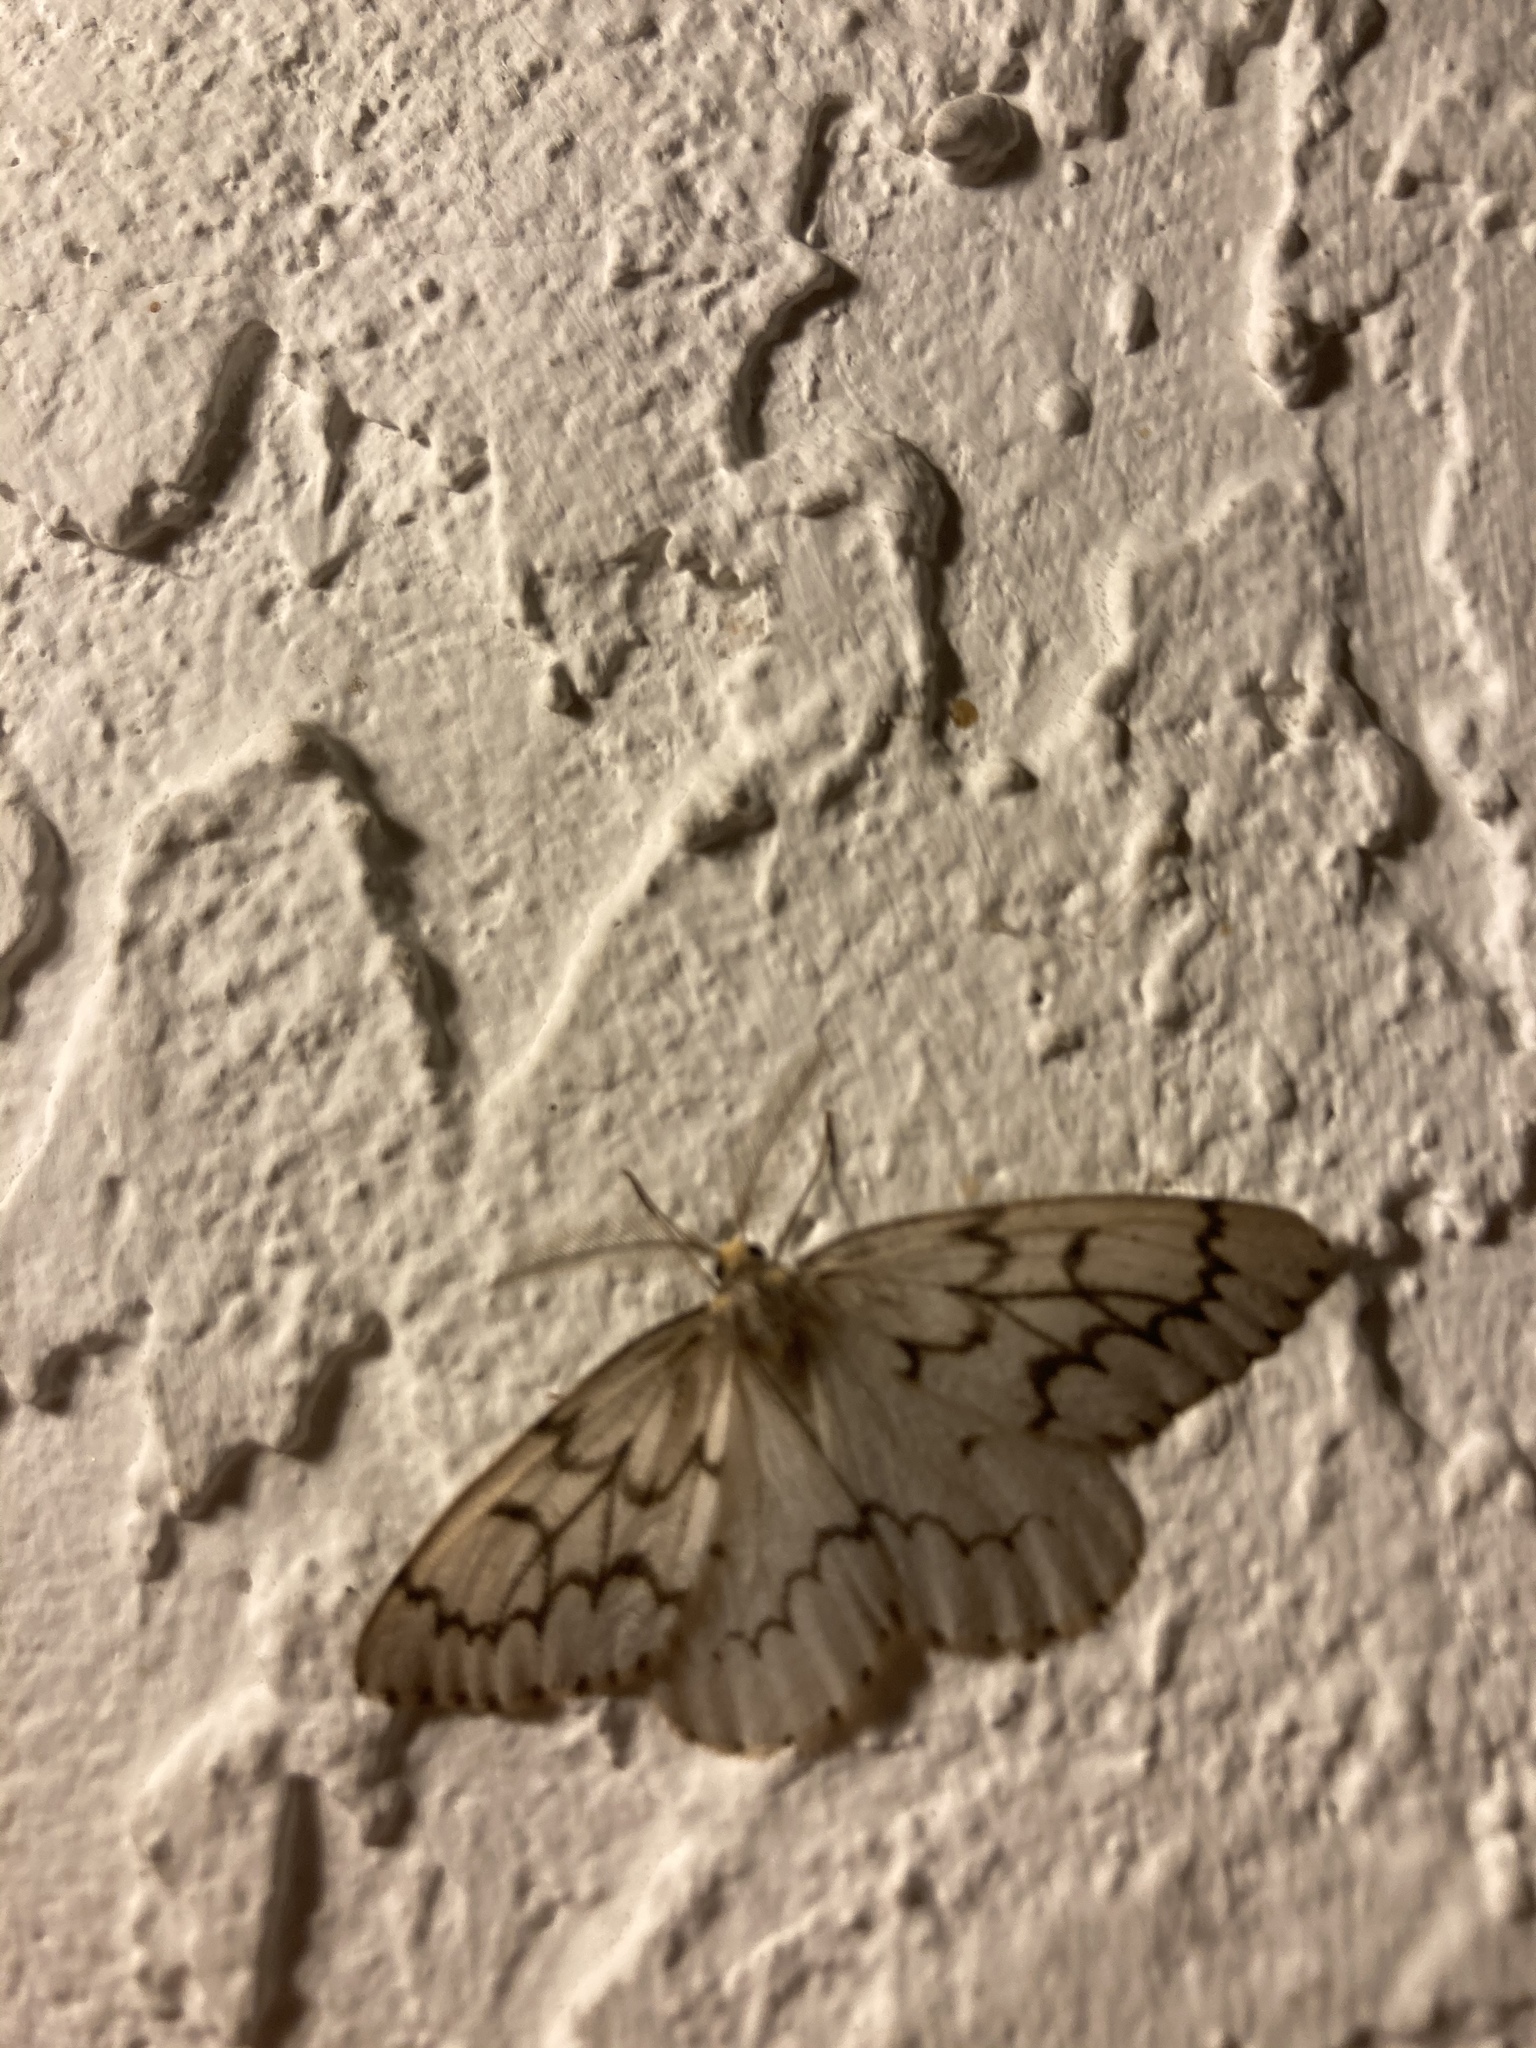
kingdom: Animalia
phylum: Arthropoda
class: Insecta
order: Lepidoptera
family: Geometridae
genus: Nepytia
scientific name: Nepytia phantasmaria
